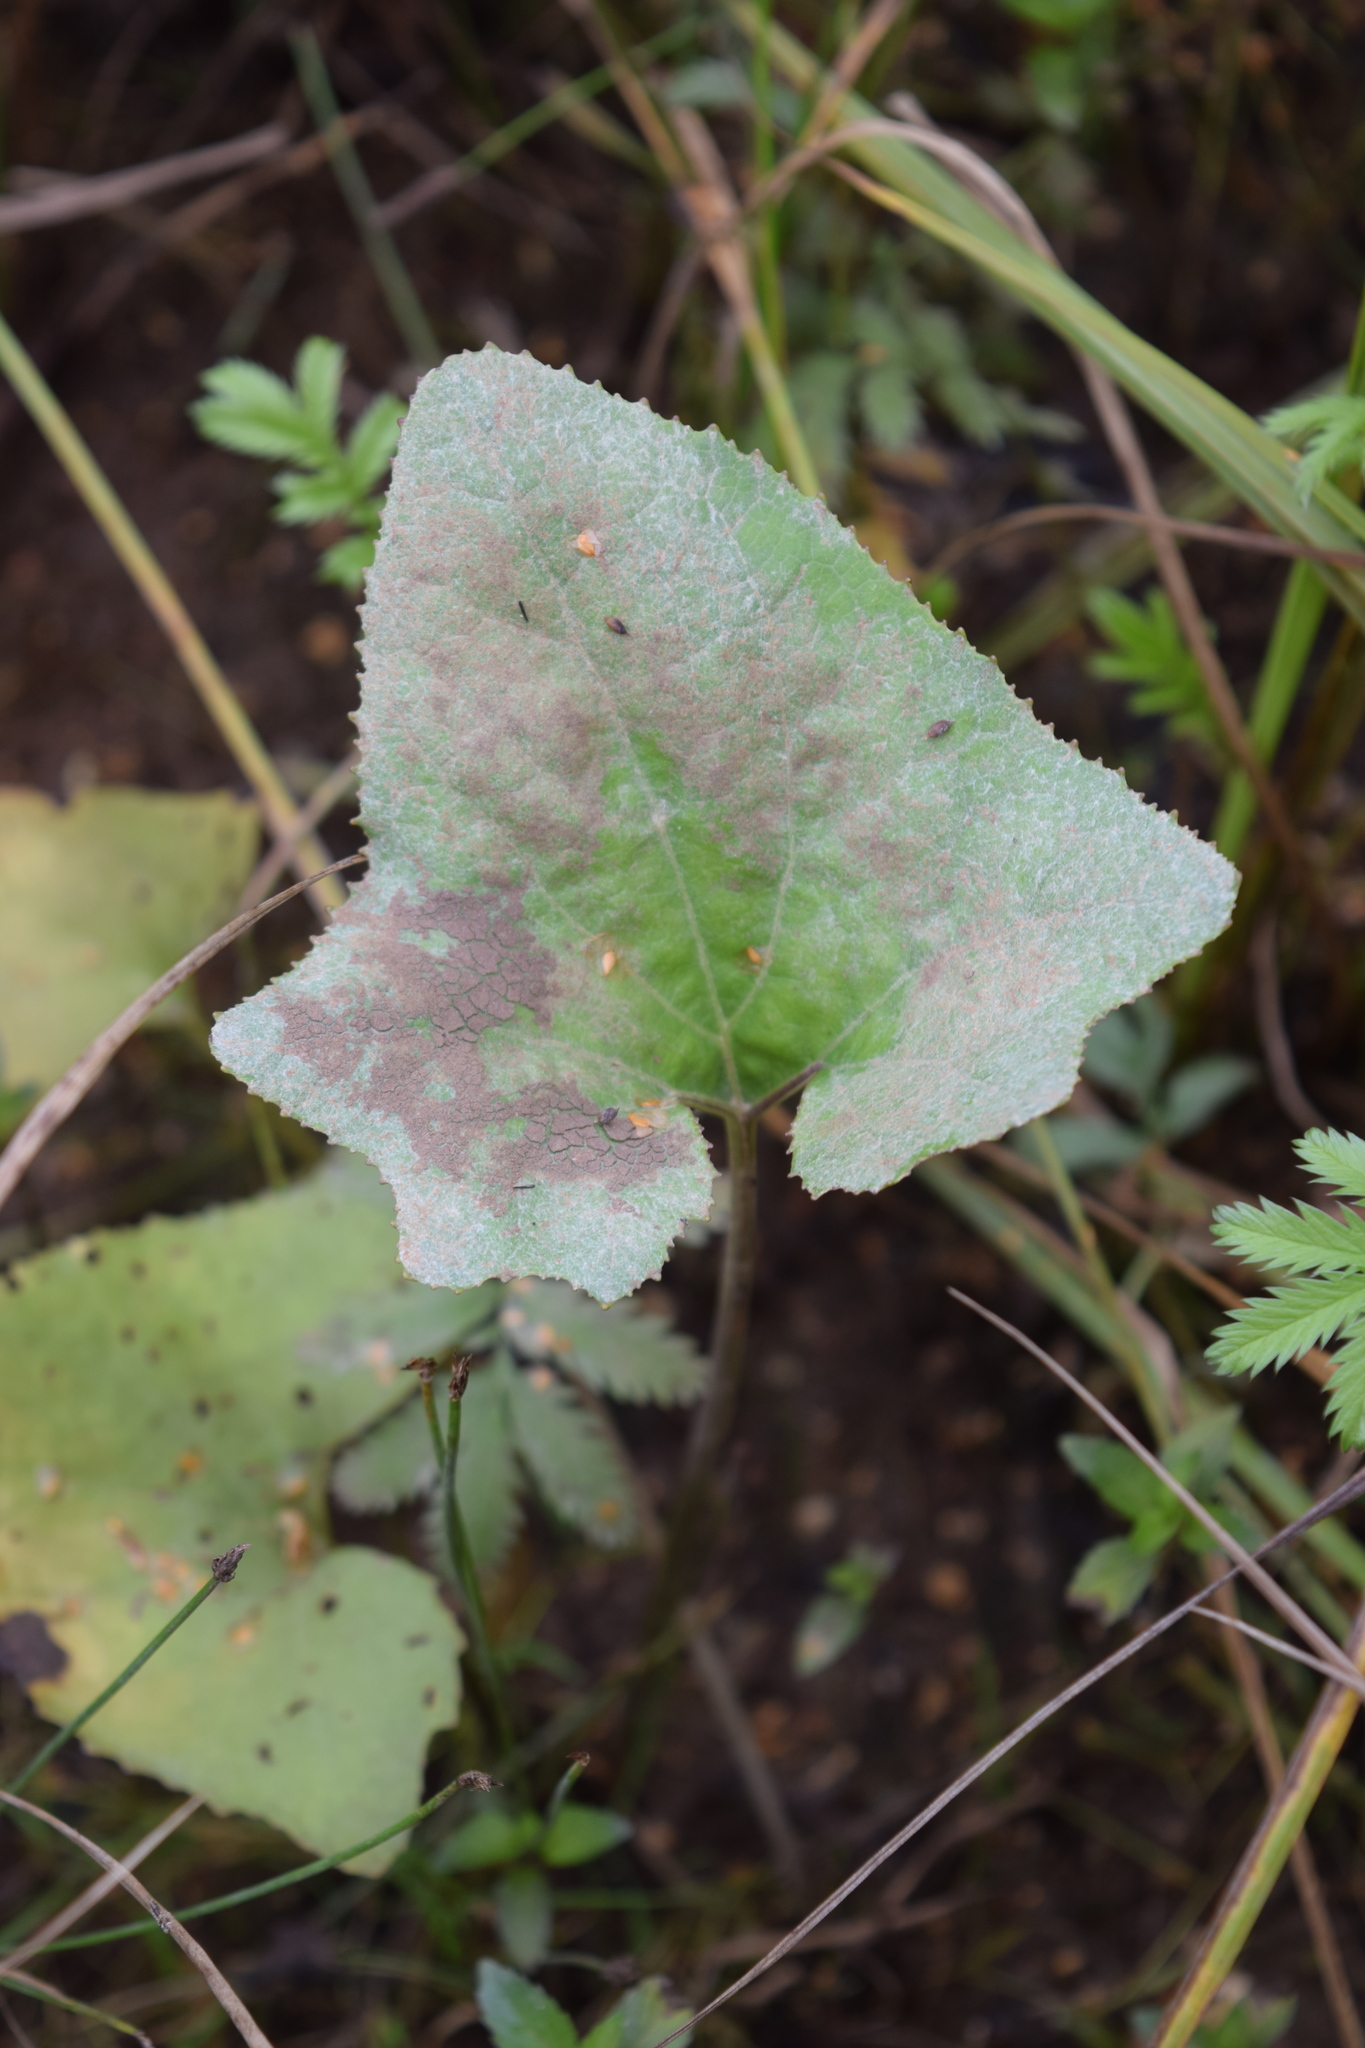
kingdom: Plantae
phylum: Tracheophyta
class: Magnoliopsida
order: Asterales
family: Asteraceae
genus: Petasites
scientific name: Petasites spurius
